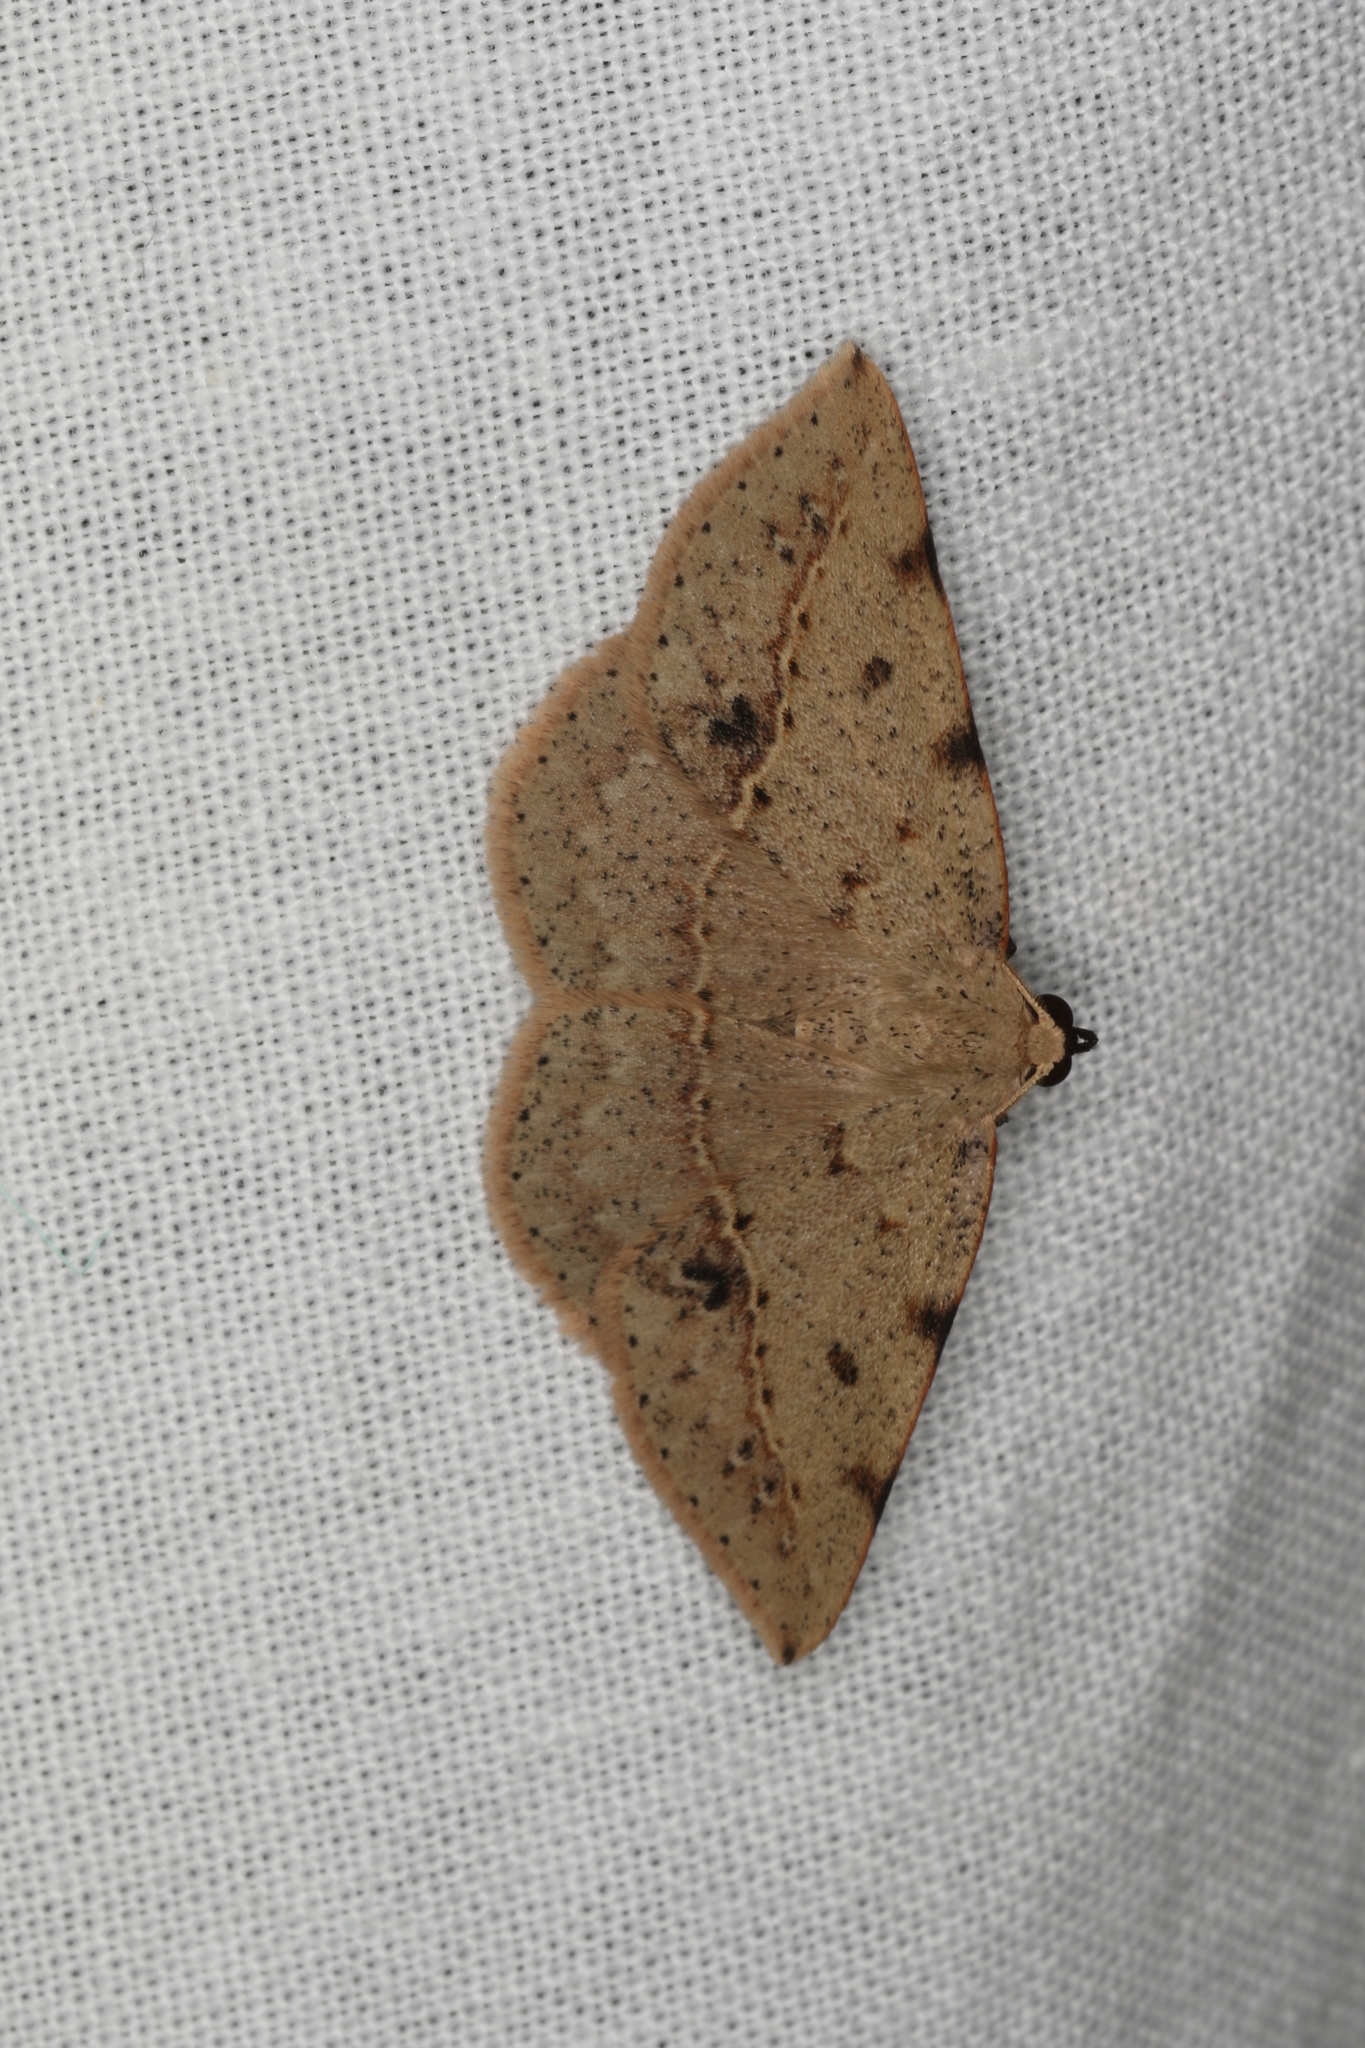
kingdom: Animalia
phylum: Arthropoda
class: Insecta
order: Lepidoptera
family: Geometridae
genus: Taxeotis
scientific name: Taxeotis epigaea
